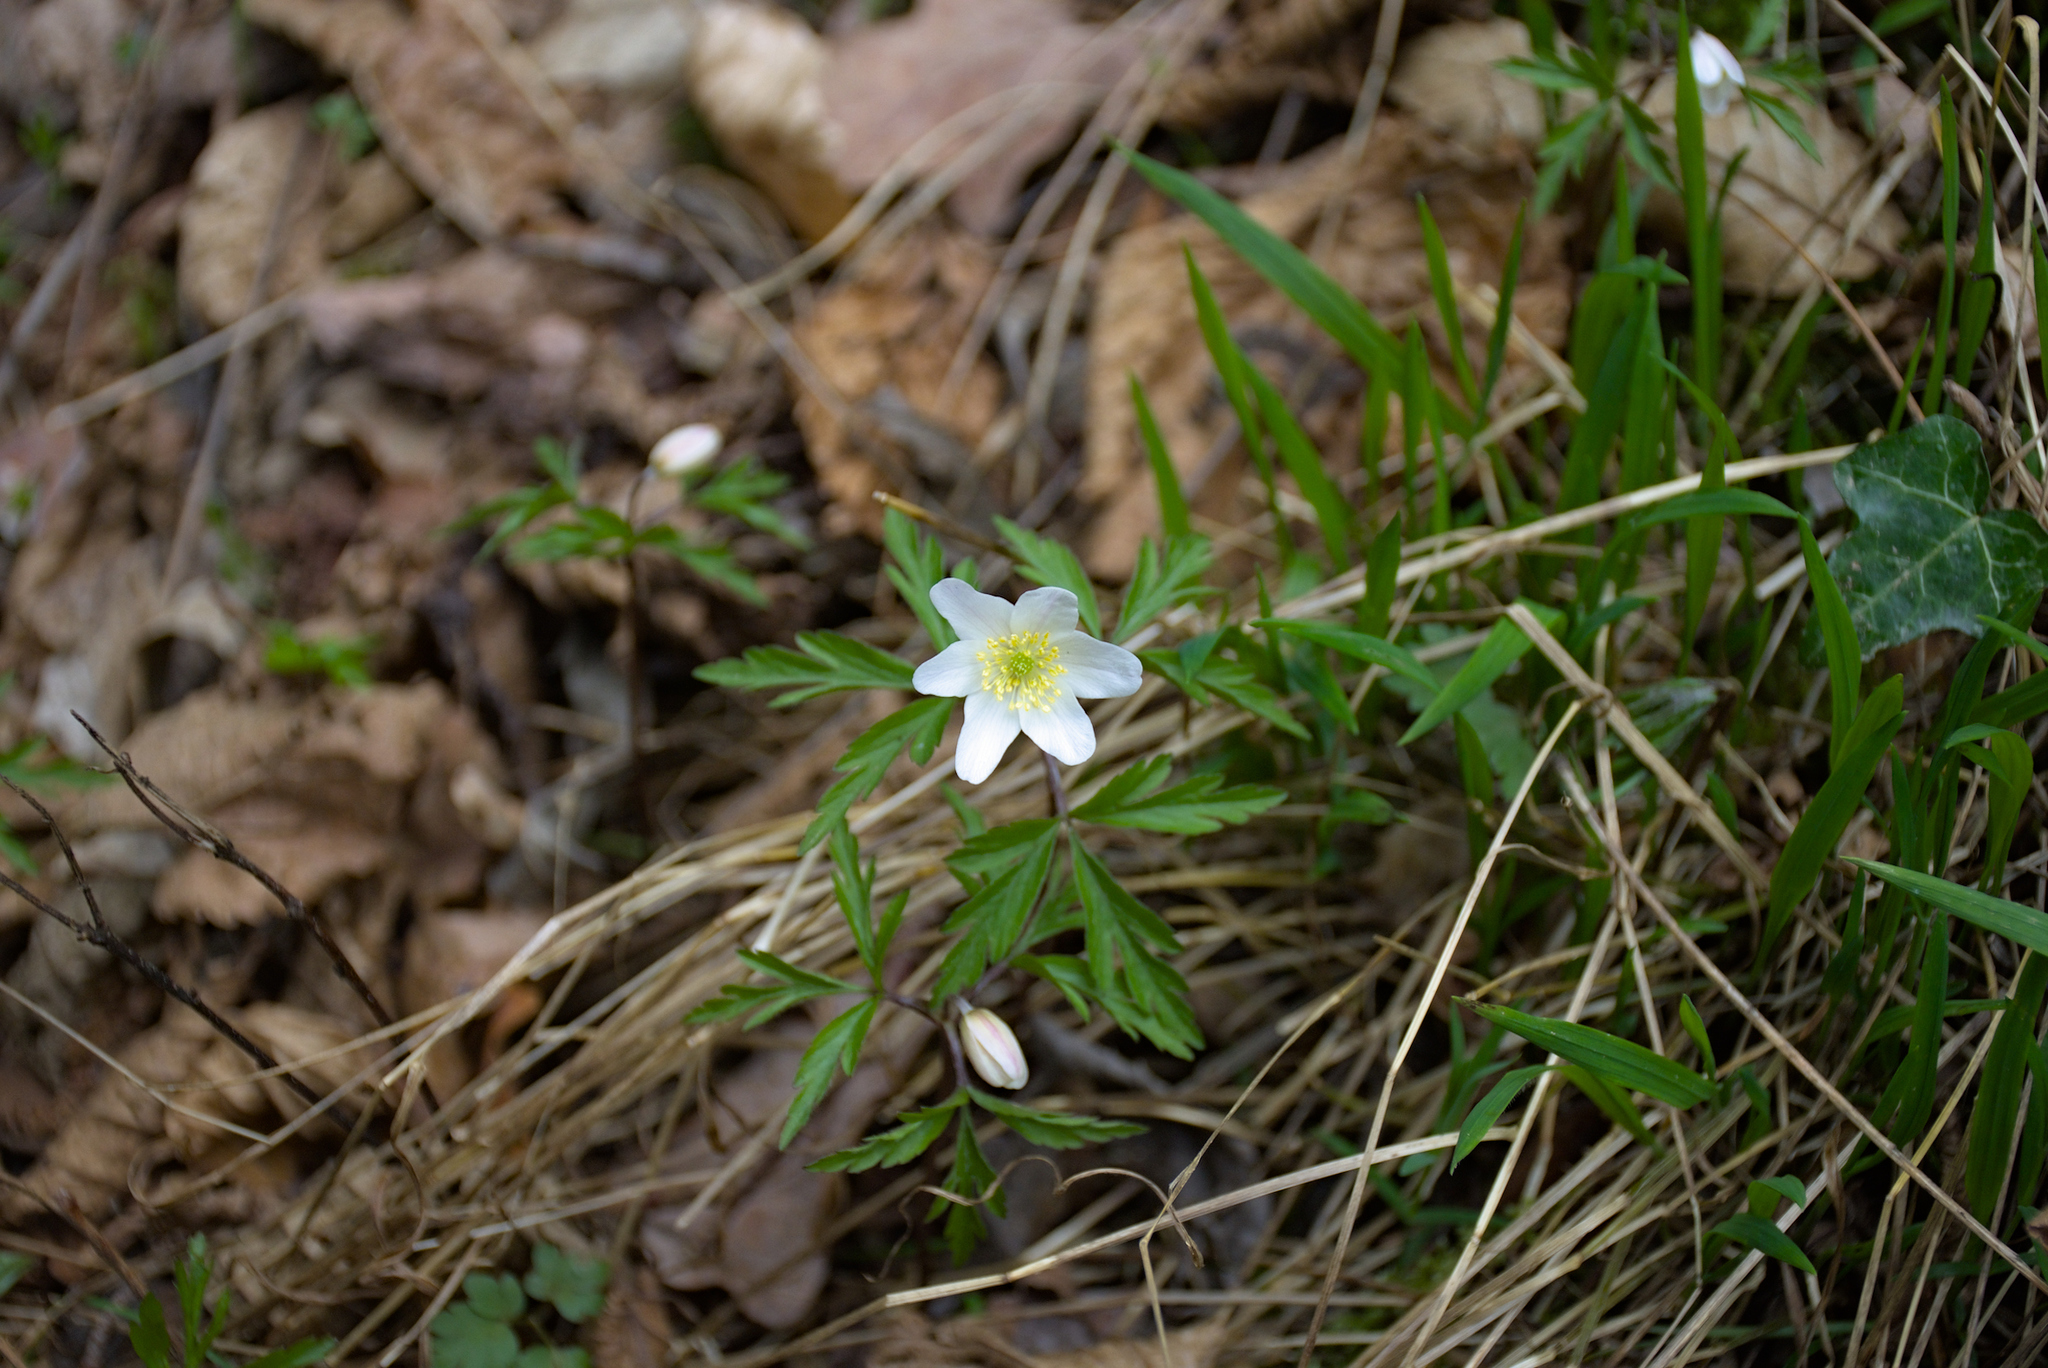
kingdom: Plantae
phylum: Tracheophyta
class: Magnoliopsida
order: Ranunculales
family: Ranunculaceae
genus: Anemone
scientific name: Anemone nemorosa
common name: Wood anemone
